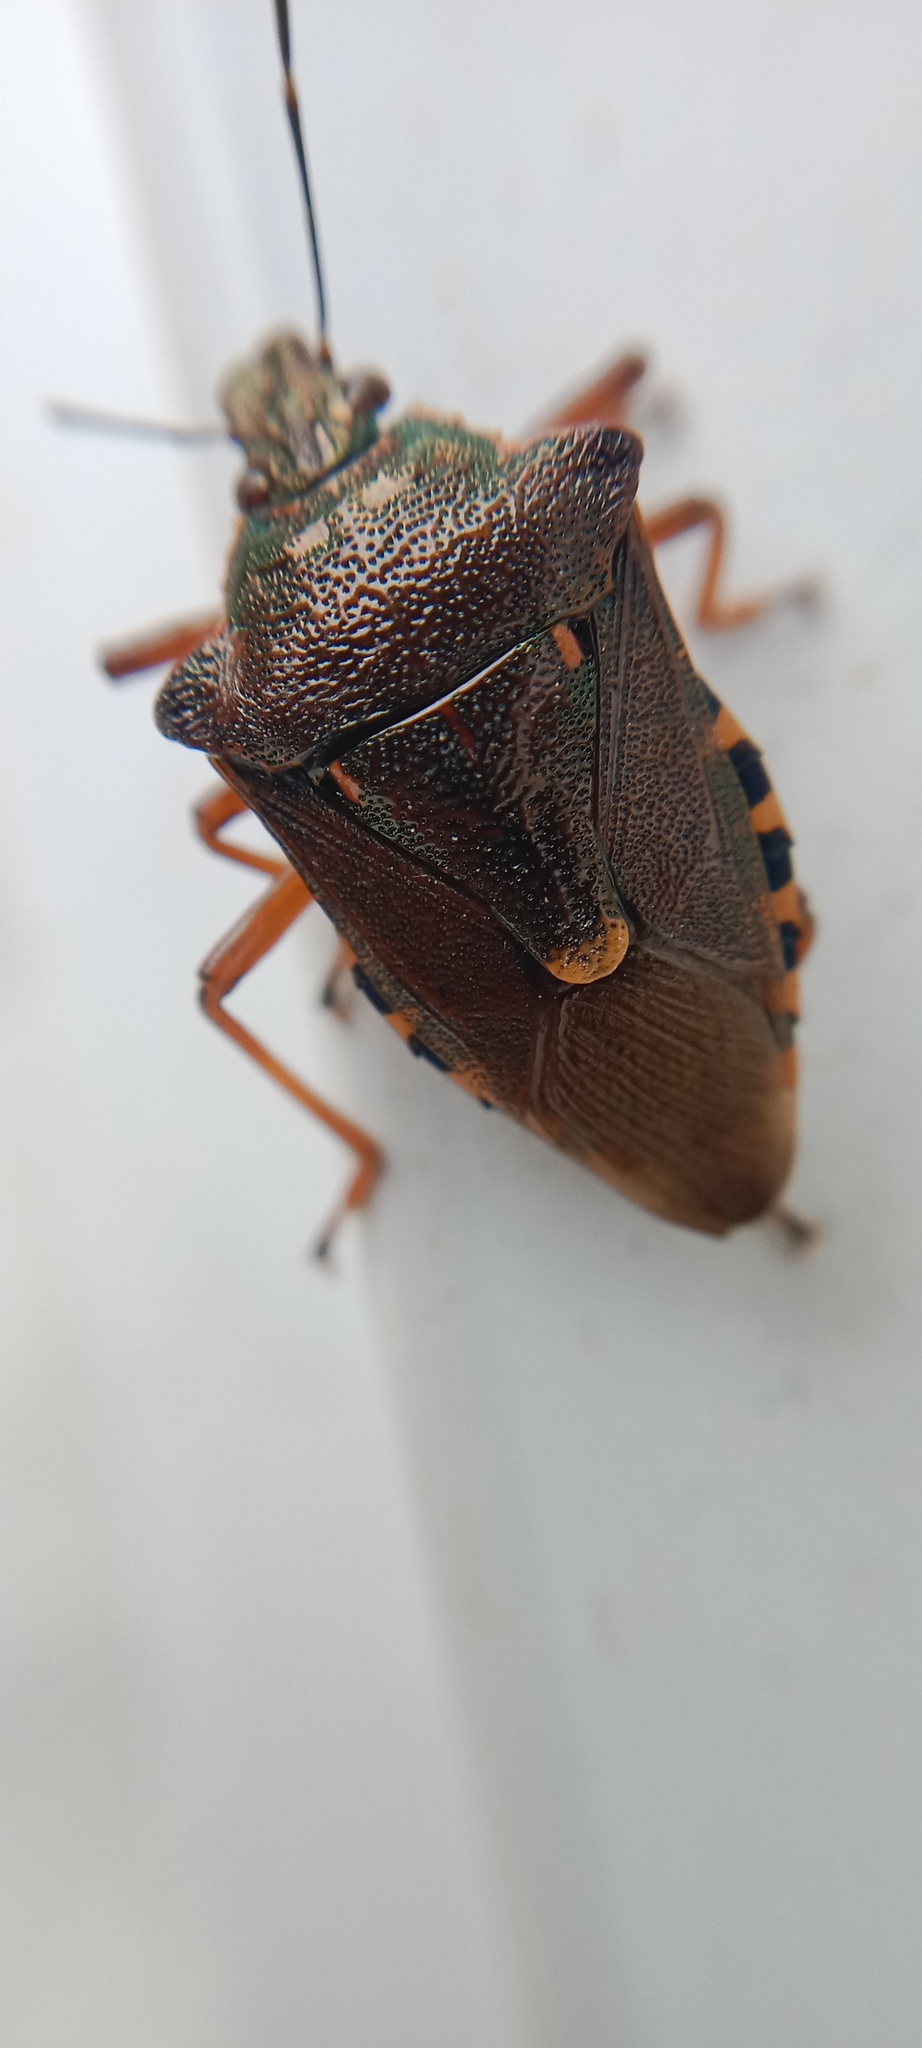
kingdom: Animalia
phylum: Arthropoda
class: Insecta
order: Hemiptera
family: Pentatomidae
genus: Pinthaeus
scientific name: Pinthaeus sanguinipes
